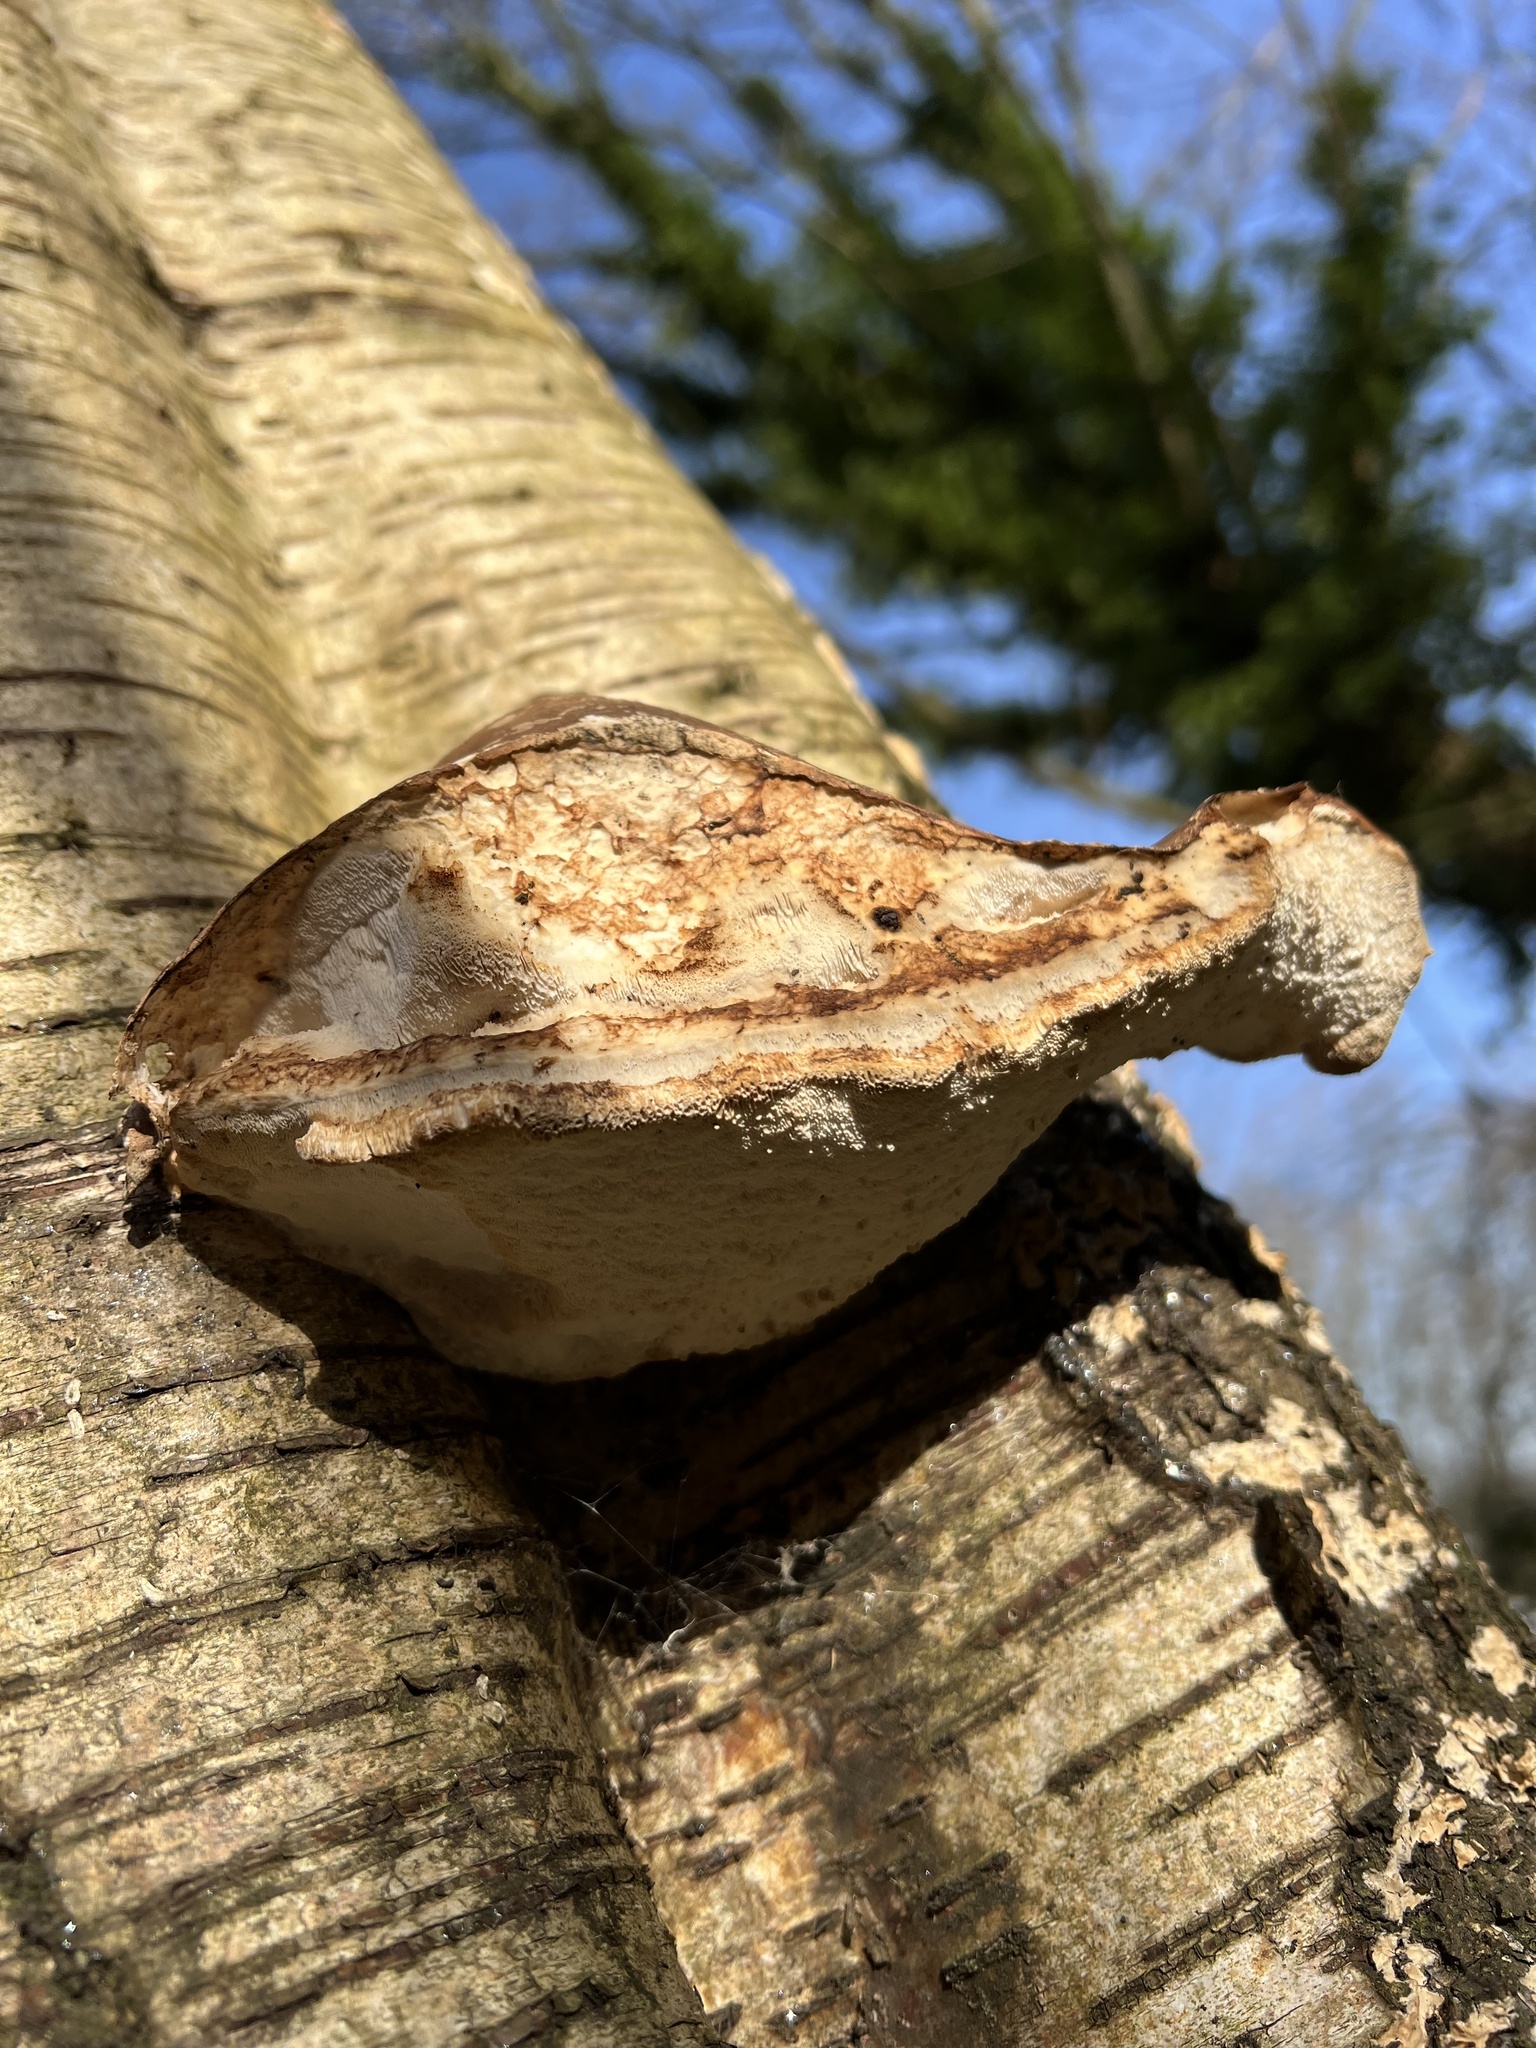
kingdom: Fungi
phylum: Basidiomycota
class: Agaricomycetes
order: Polyporales
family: Fomitopsidaceae
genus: Fomitopsis
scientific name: Fomitopsis betulina
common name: Birch polypore
